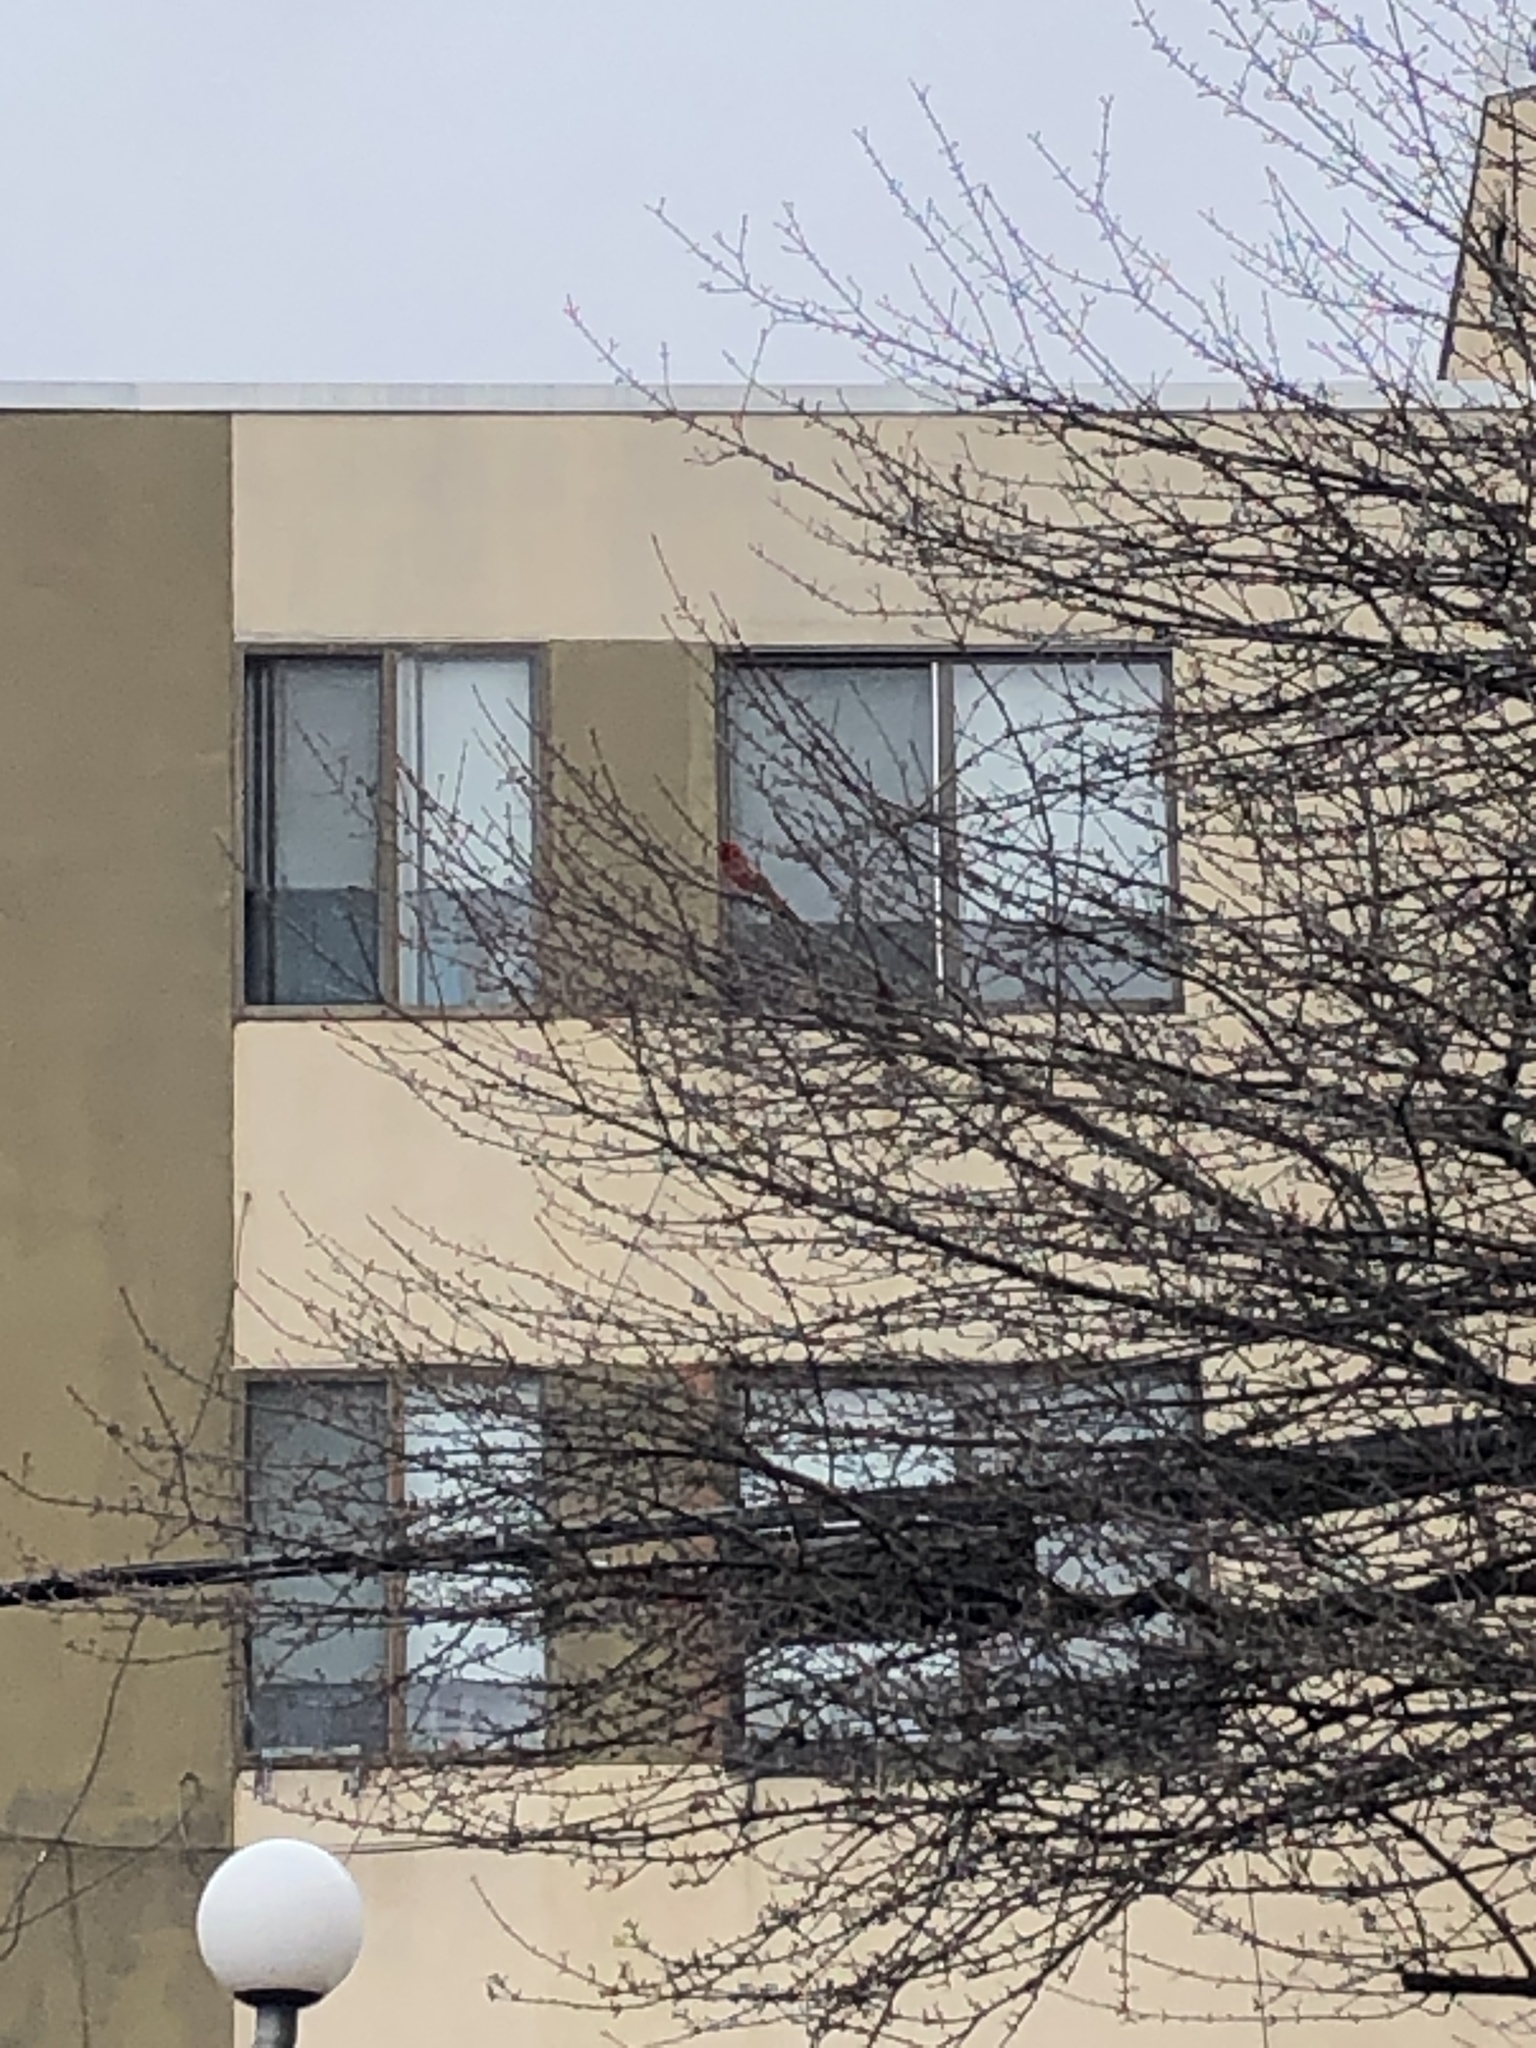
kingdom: Animalia
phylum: Chordata
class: Aves
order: Passeriformes
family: Cardinalidae
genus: Cardinalis
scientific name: Cardinalis cardinalis
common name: Northern cardinal
